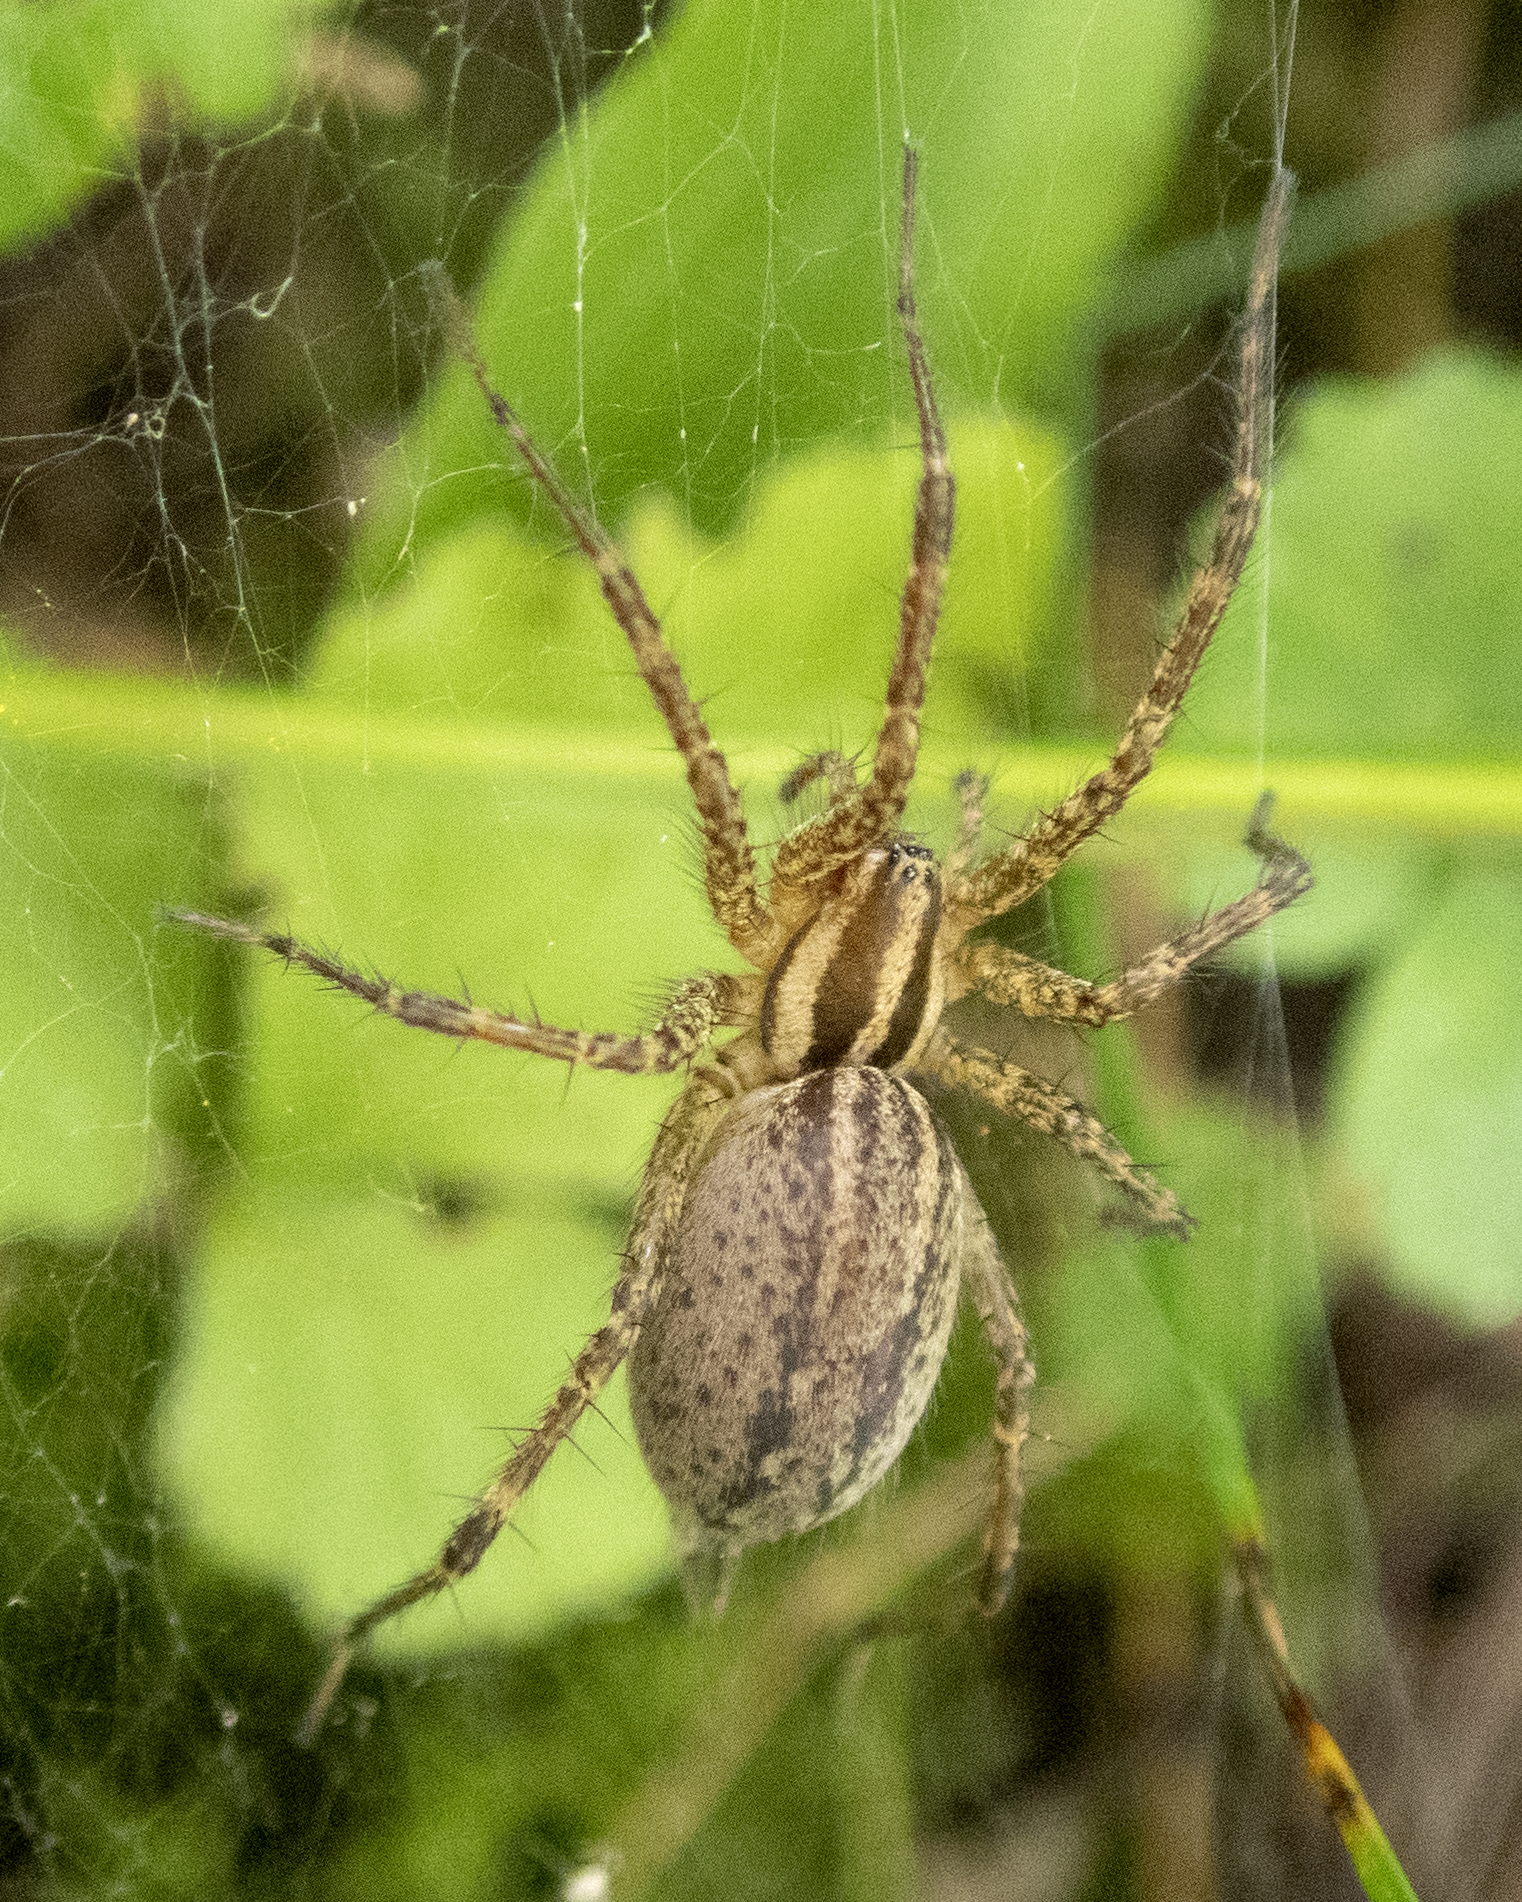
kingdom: Animalia
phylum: Arthropoda
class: Arachnida
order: Araneae
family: Agelenidae
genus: Agelenopsis
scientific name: Agelenopsis
